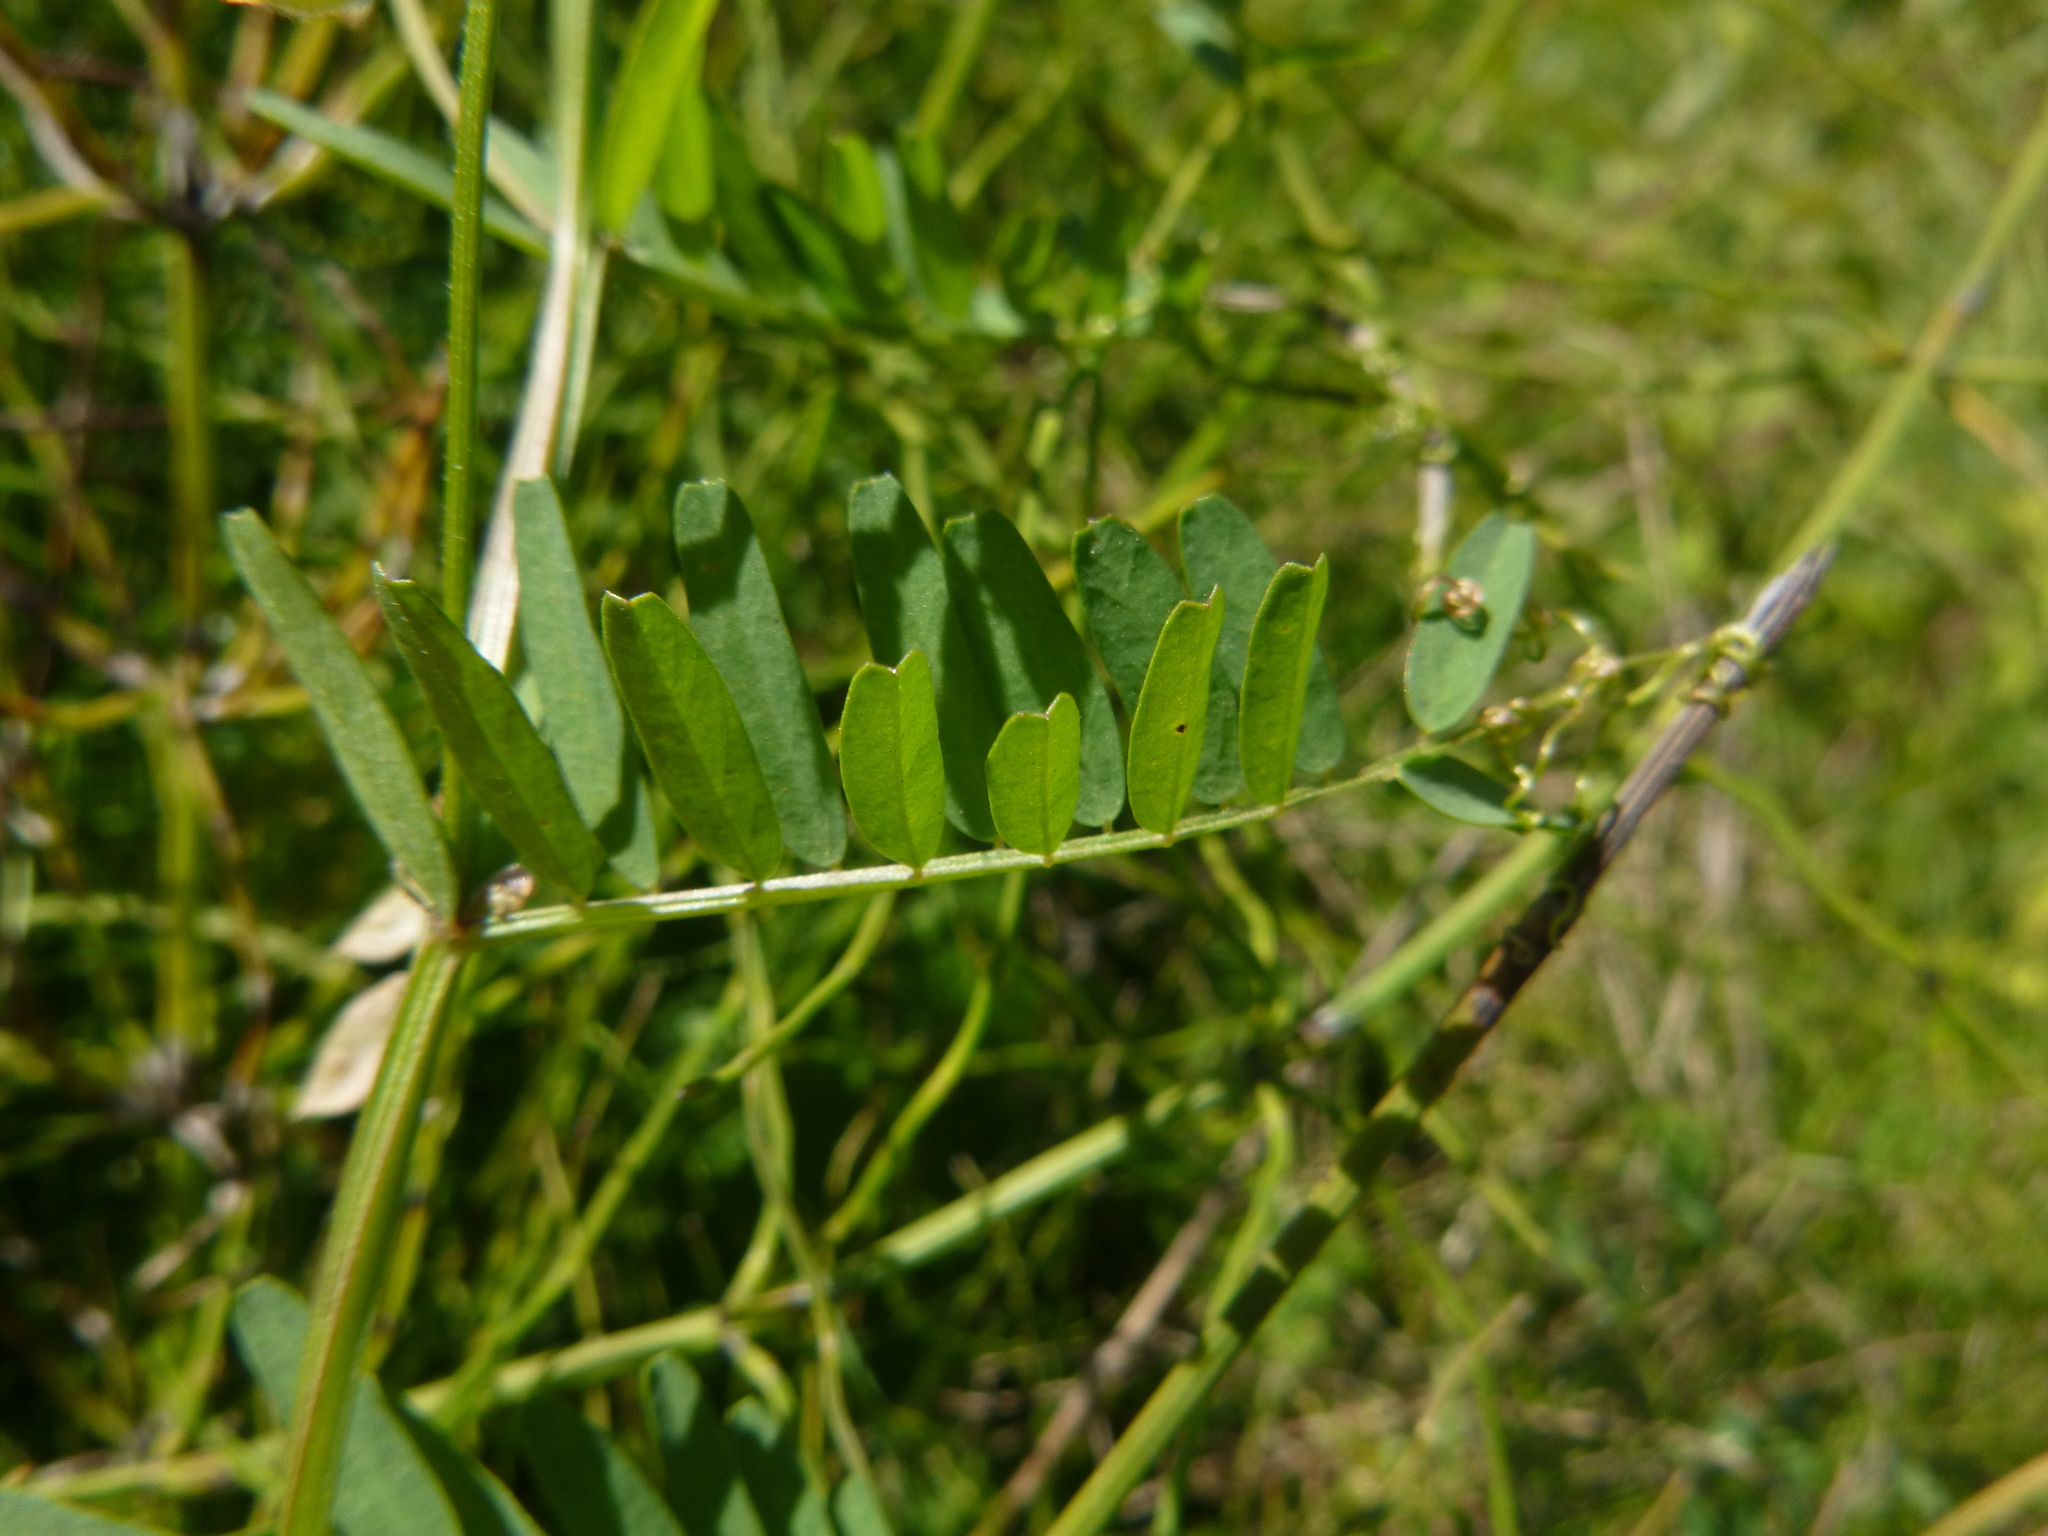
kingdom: Plantae
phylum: Tracheophyta
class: Magnoliopsida
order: Fabales
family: Fabaceae
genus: Vicia
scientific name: Vicia hirsuta
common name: Tiny vetch
